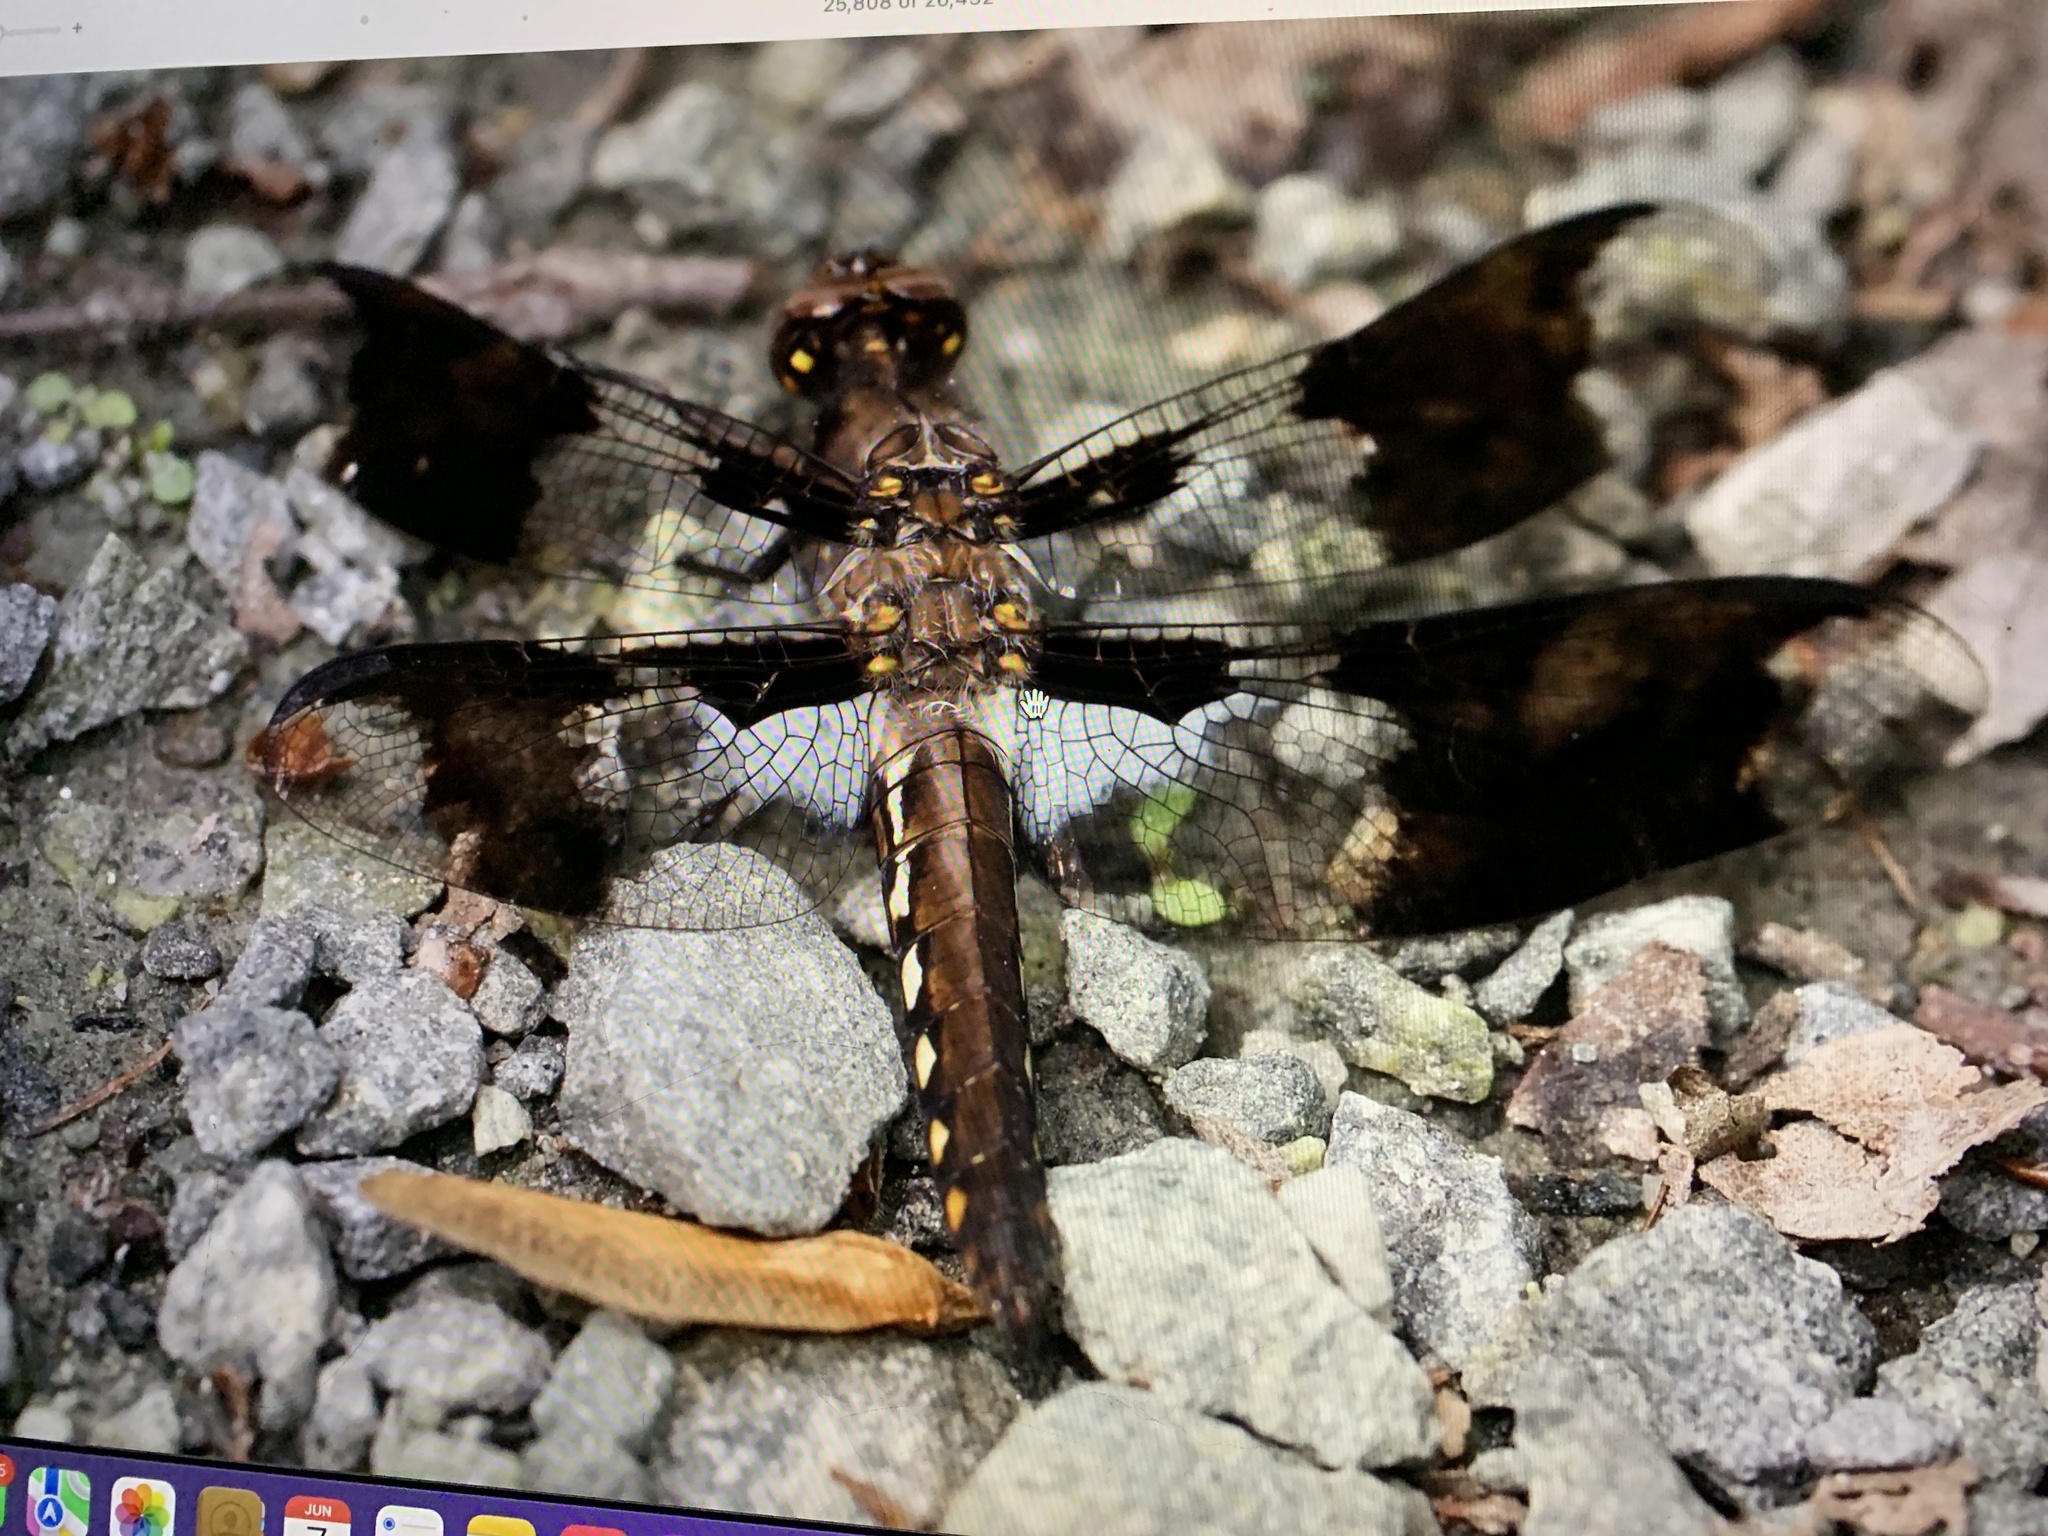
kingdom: Animalia
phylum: Arthropoda
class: Insecta
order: Odonata
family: Libellulidae
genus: Plathemis
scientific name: Plathemis lydia
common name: Common whitetail
